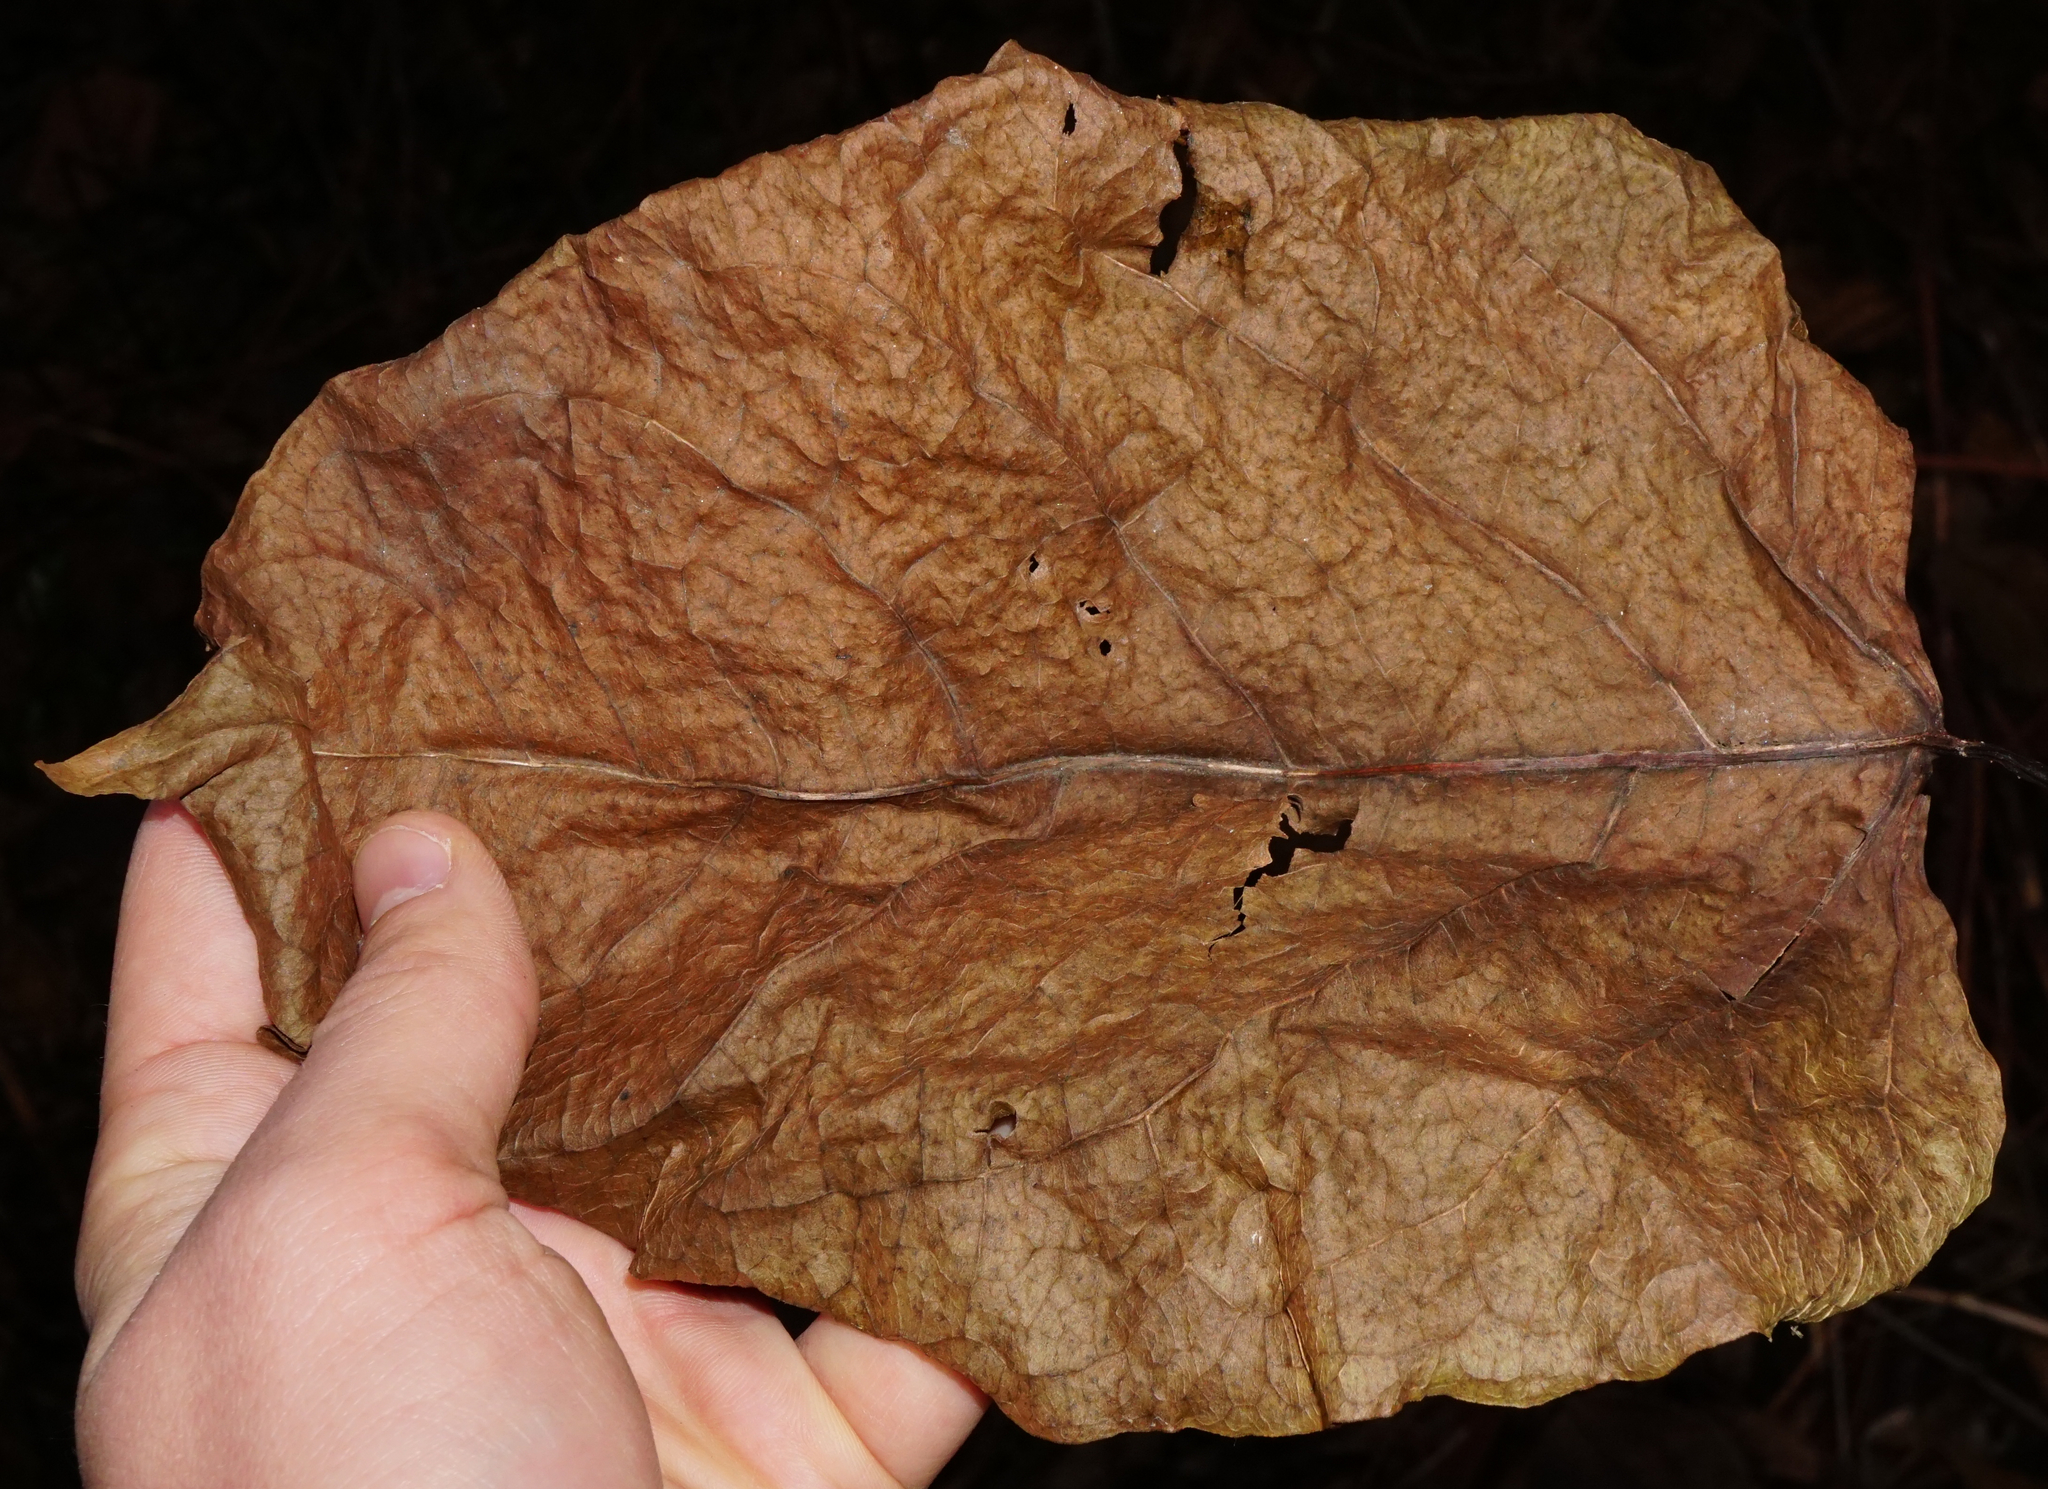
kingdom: Plantae
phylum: Tracheophyta
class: Magnoliopsida
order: Caryophyllales
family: Polygonaceae
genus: Reynoutria
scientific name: Reynoutria bohemica
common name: Bohemian knotweed
